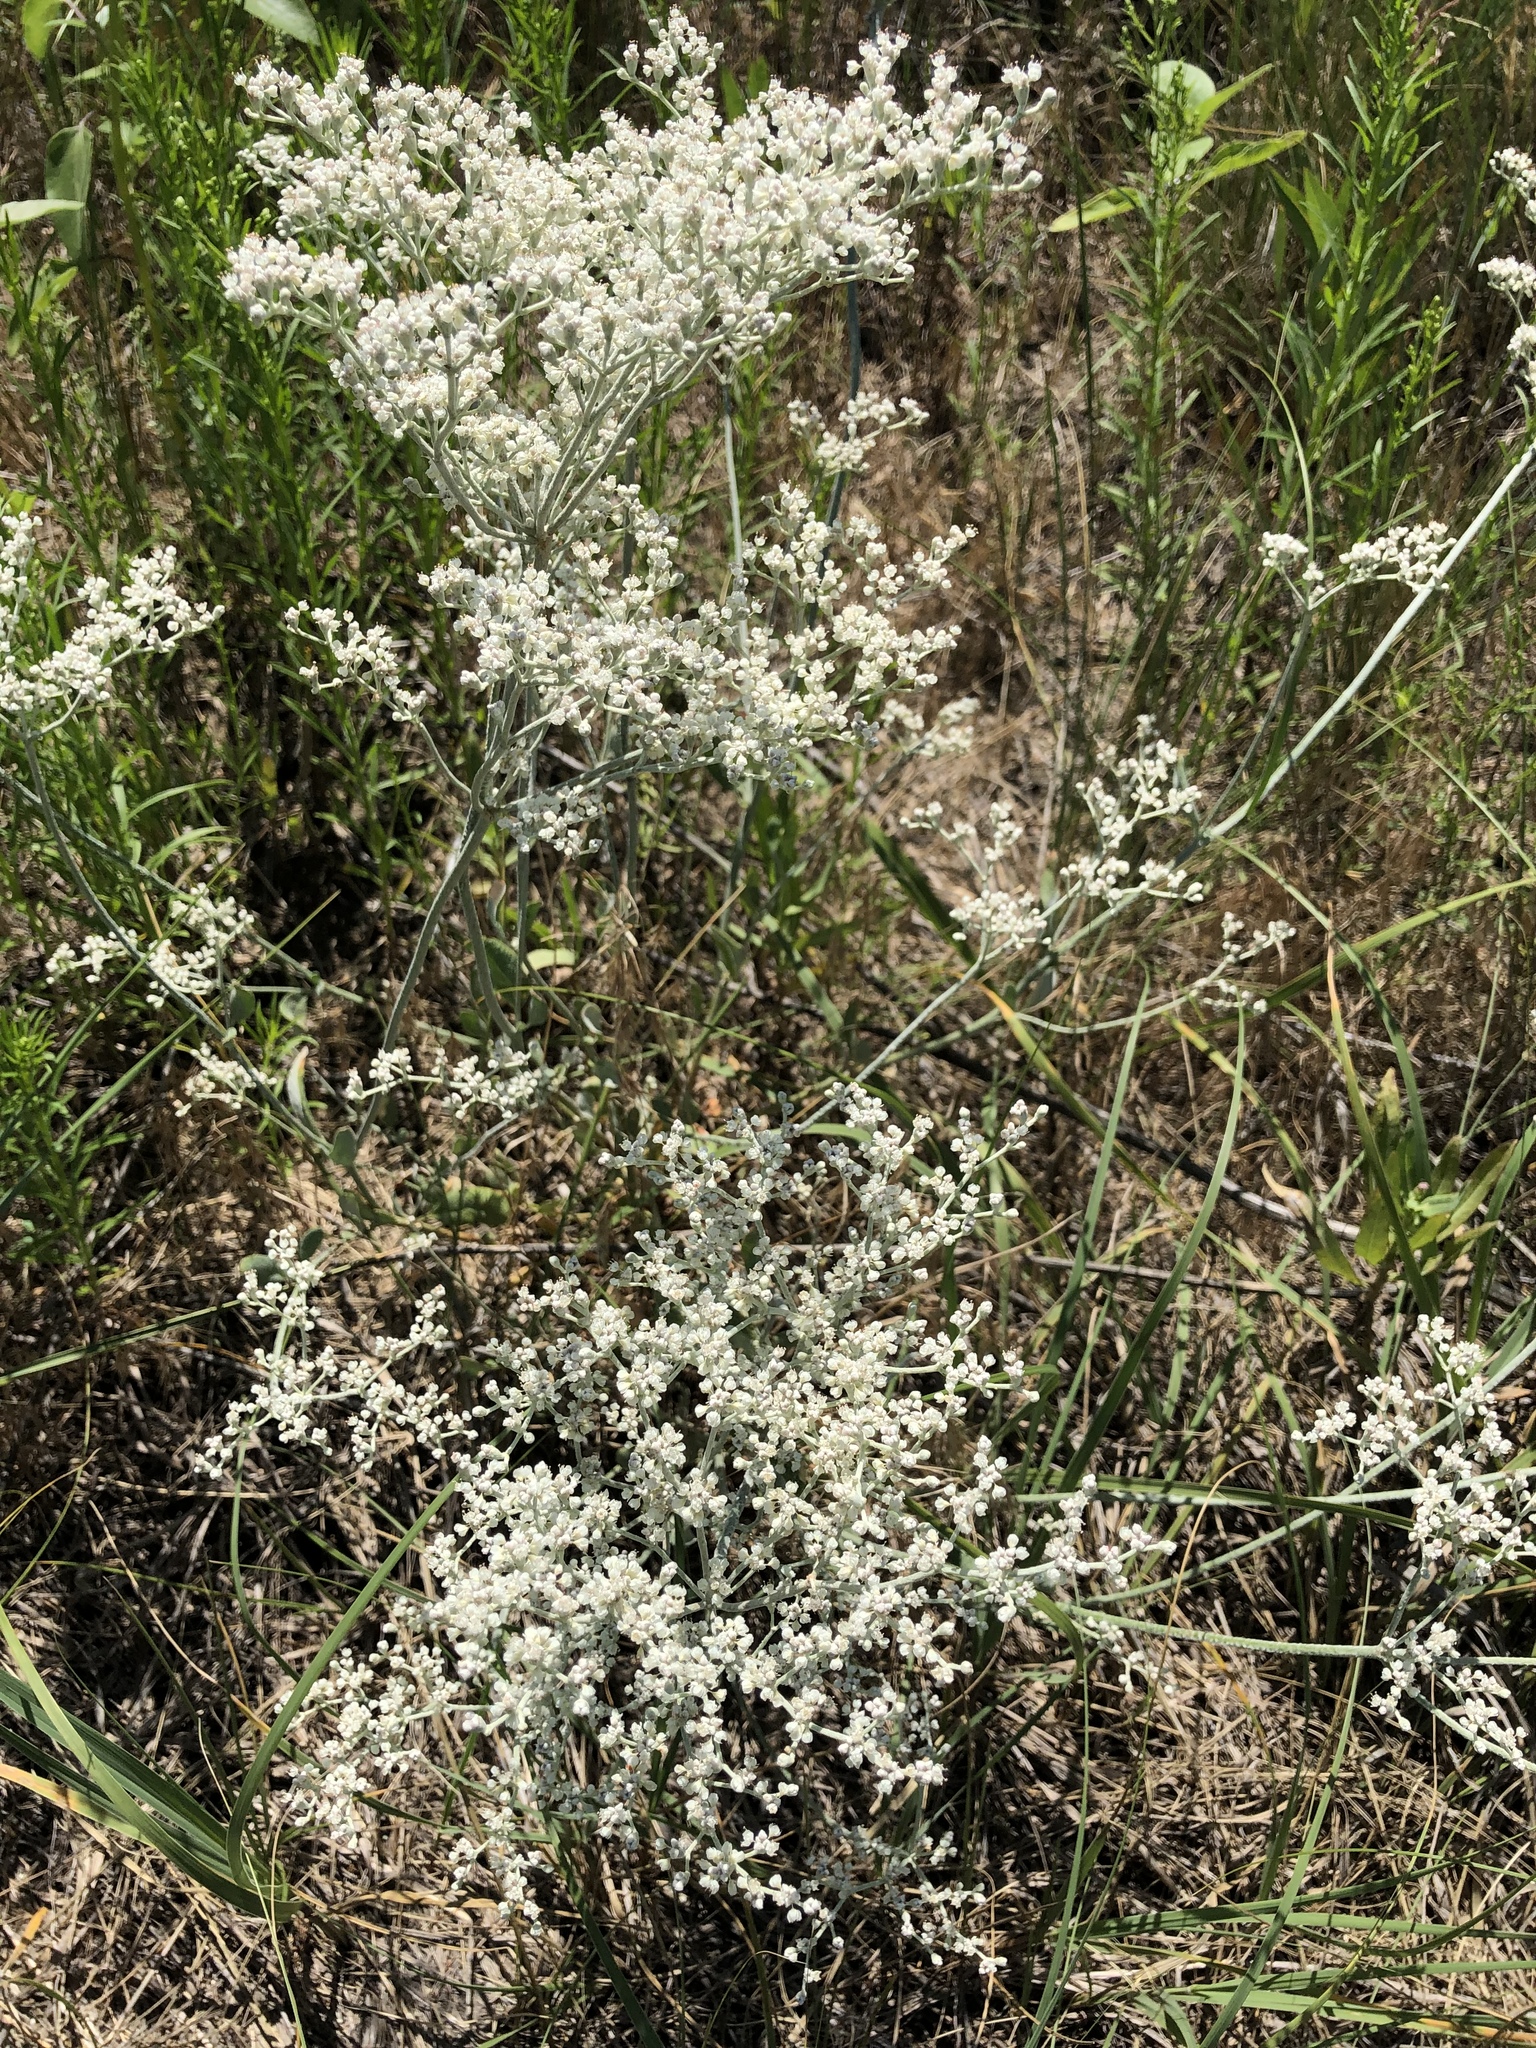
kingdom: Plantae
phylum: Tracheophyta
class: Magnoliopsida
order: Caryophyllales
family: Polygonaceae
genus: Eriogonum
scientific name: Eriogonum annuum
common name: Annual wild buckwheat
